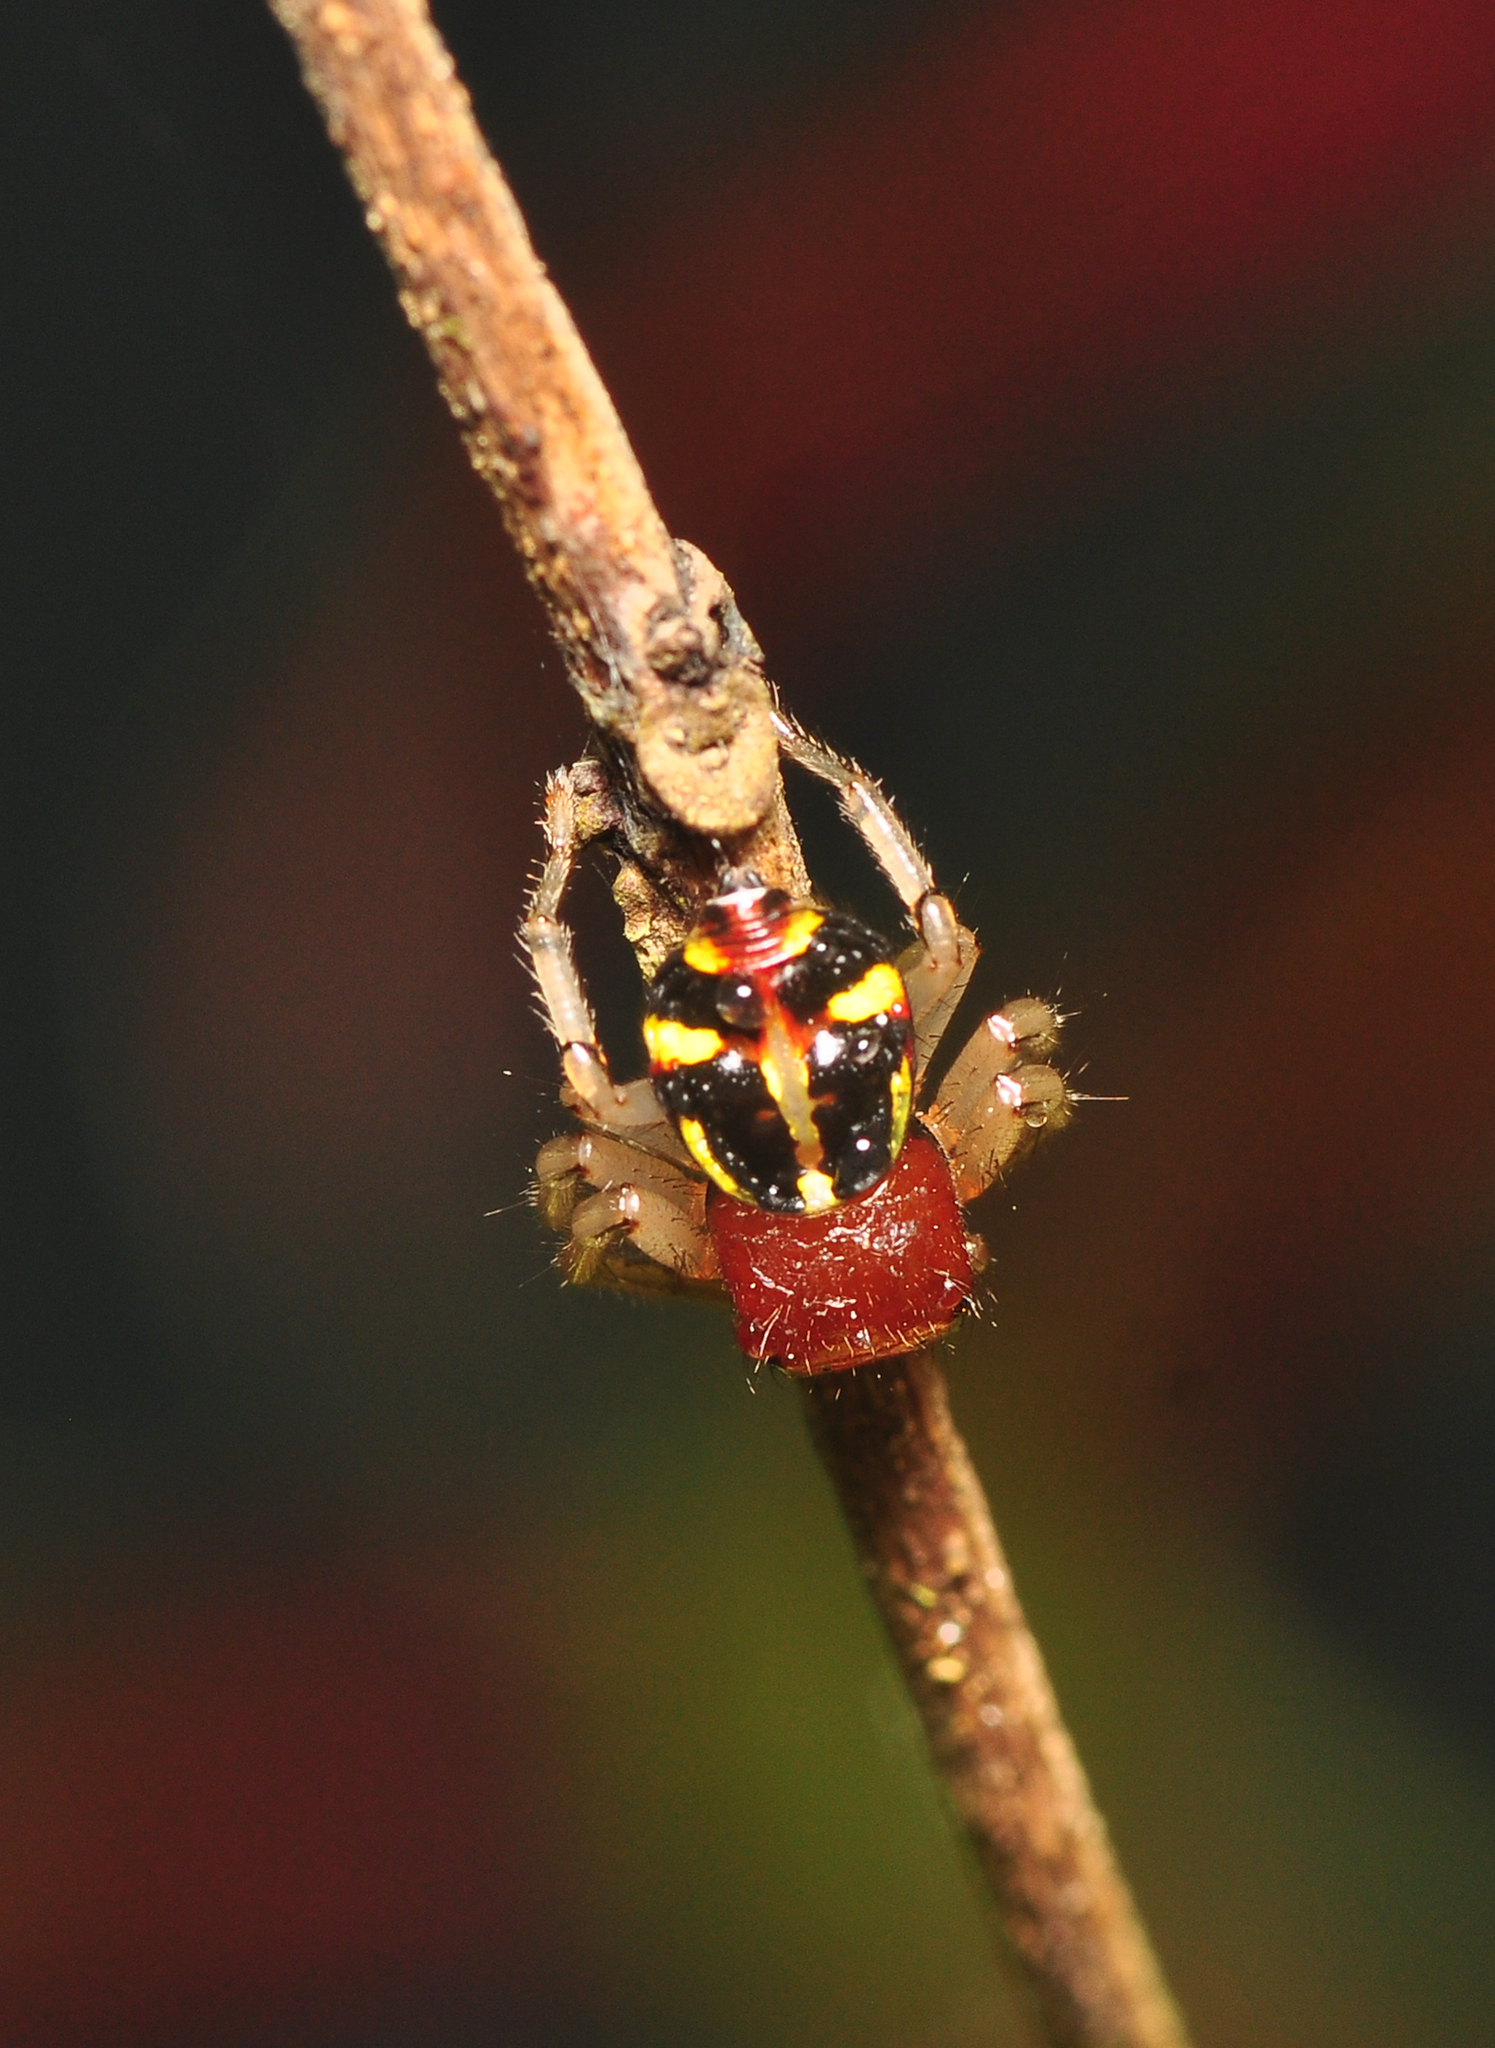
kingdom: Animalia
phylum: Arthropoda
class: Arachnida
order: Araneae
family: Thomisidae
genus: Camaricus
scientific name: Camaricus maugei
